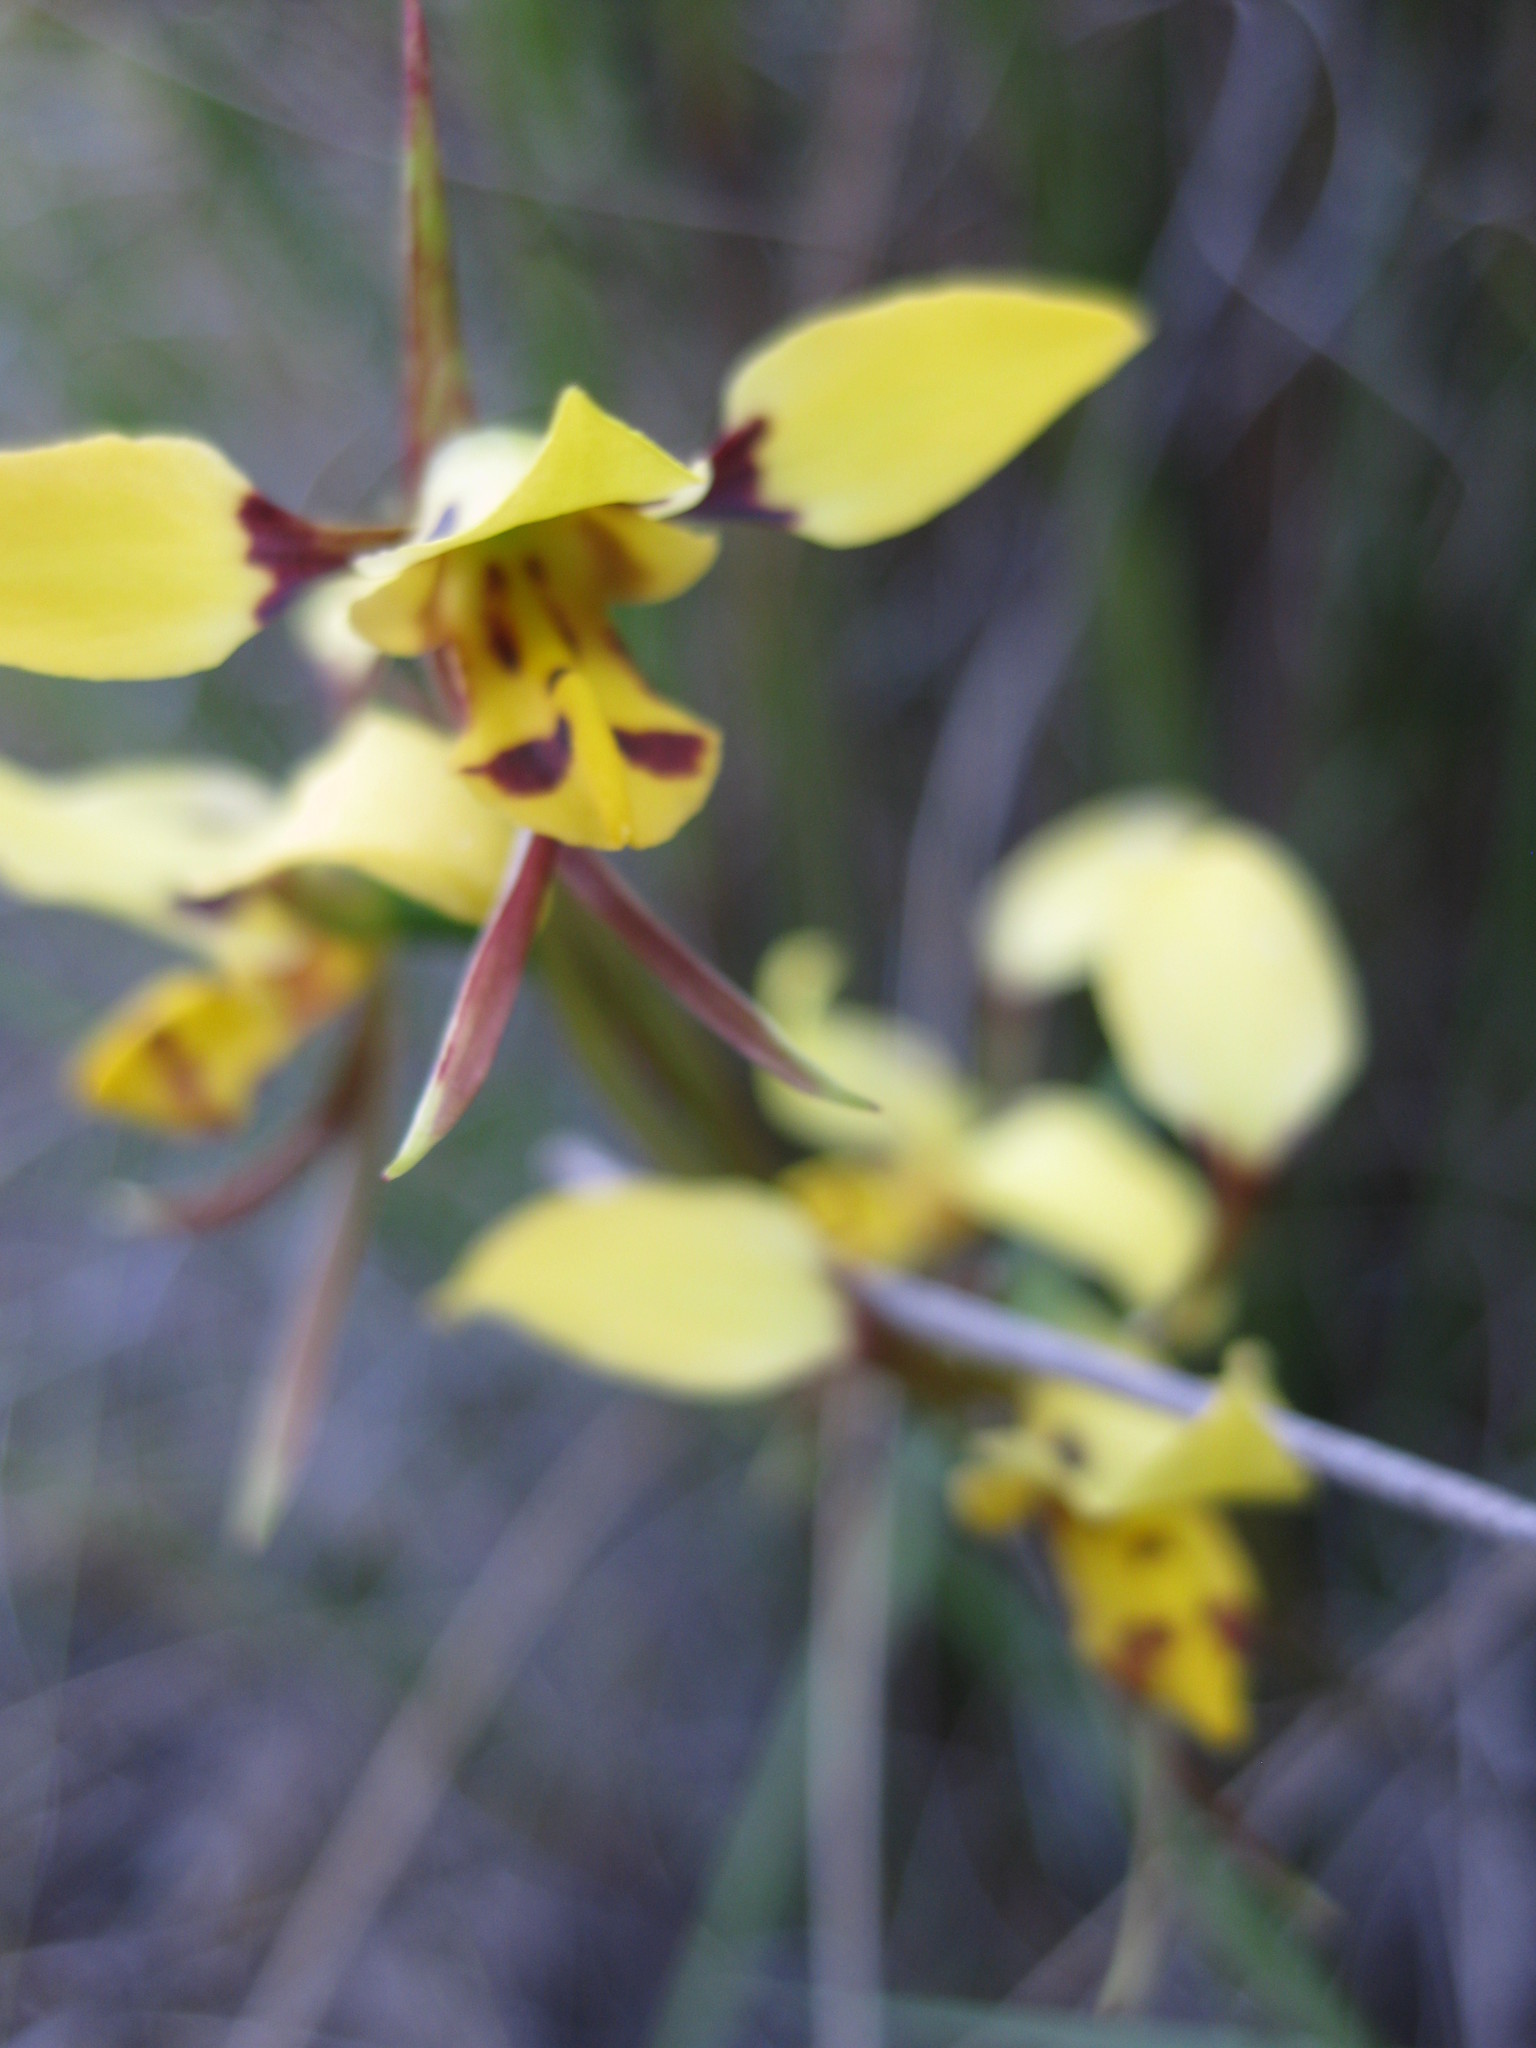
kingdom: Plantae
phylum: Tracheophyta
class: Liliopsida
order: Asparagales
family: Orchidaceae
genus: Diuris
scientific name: Diuris sulphurea
